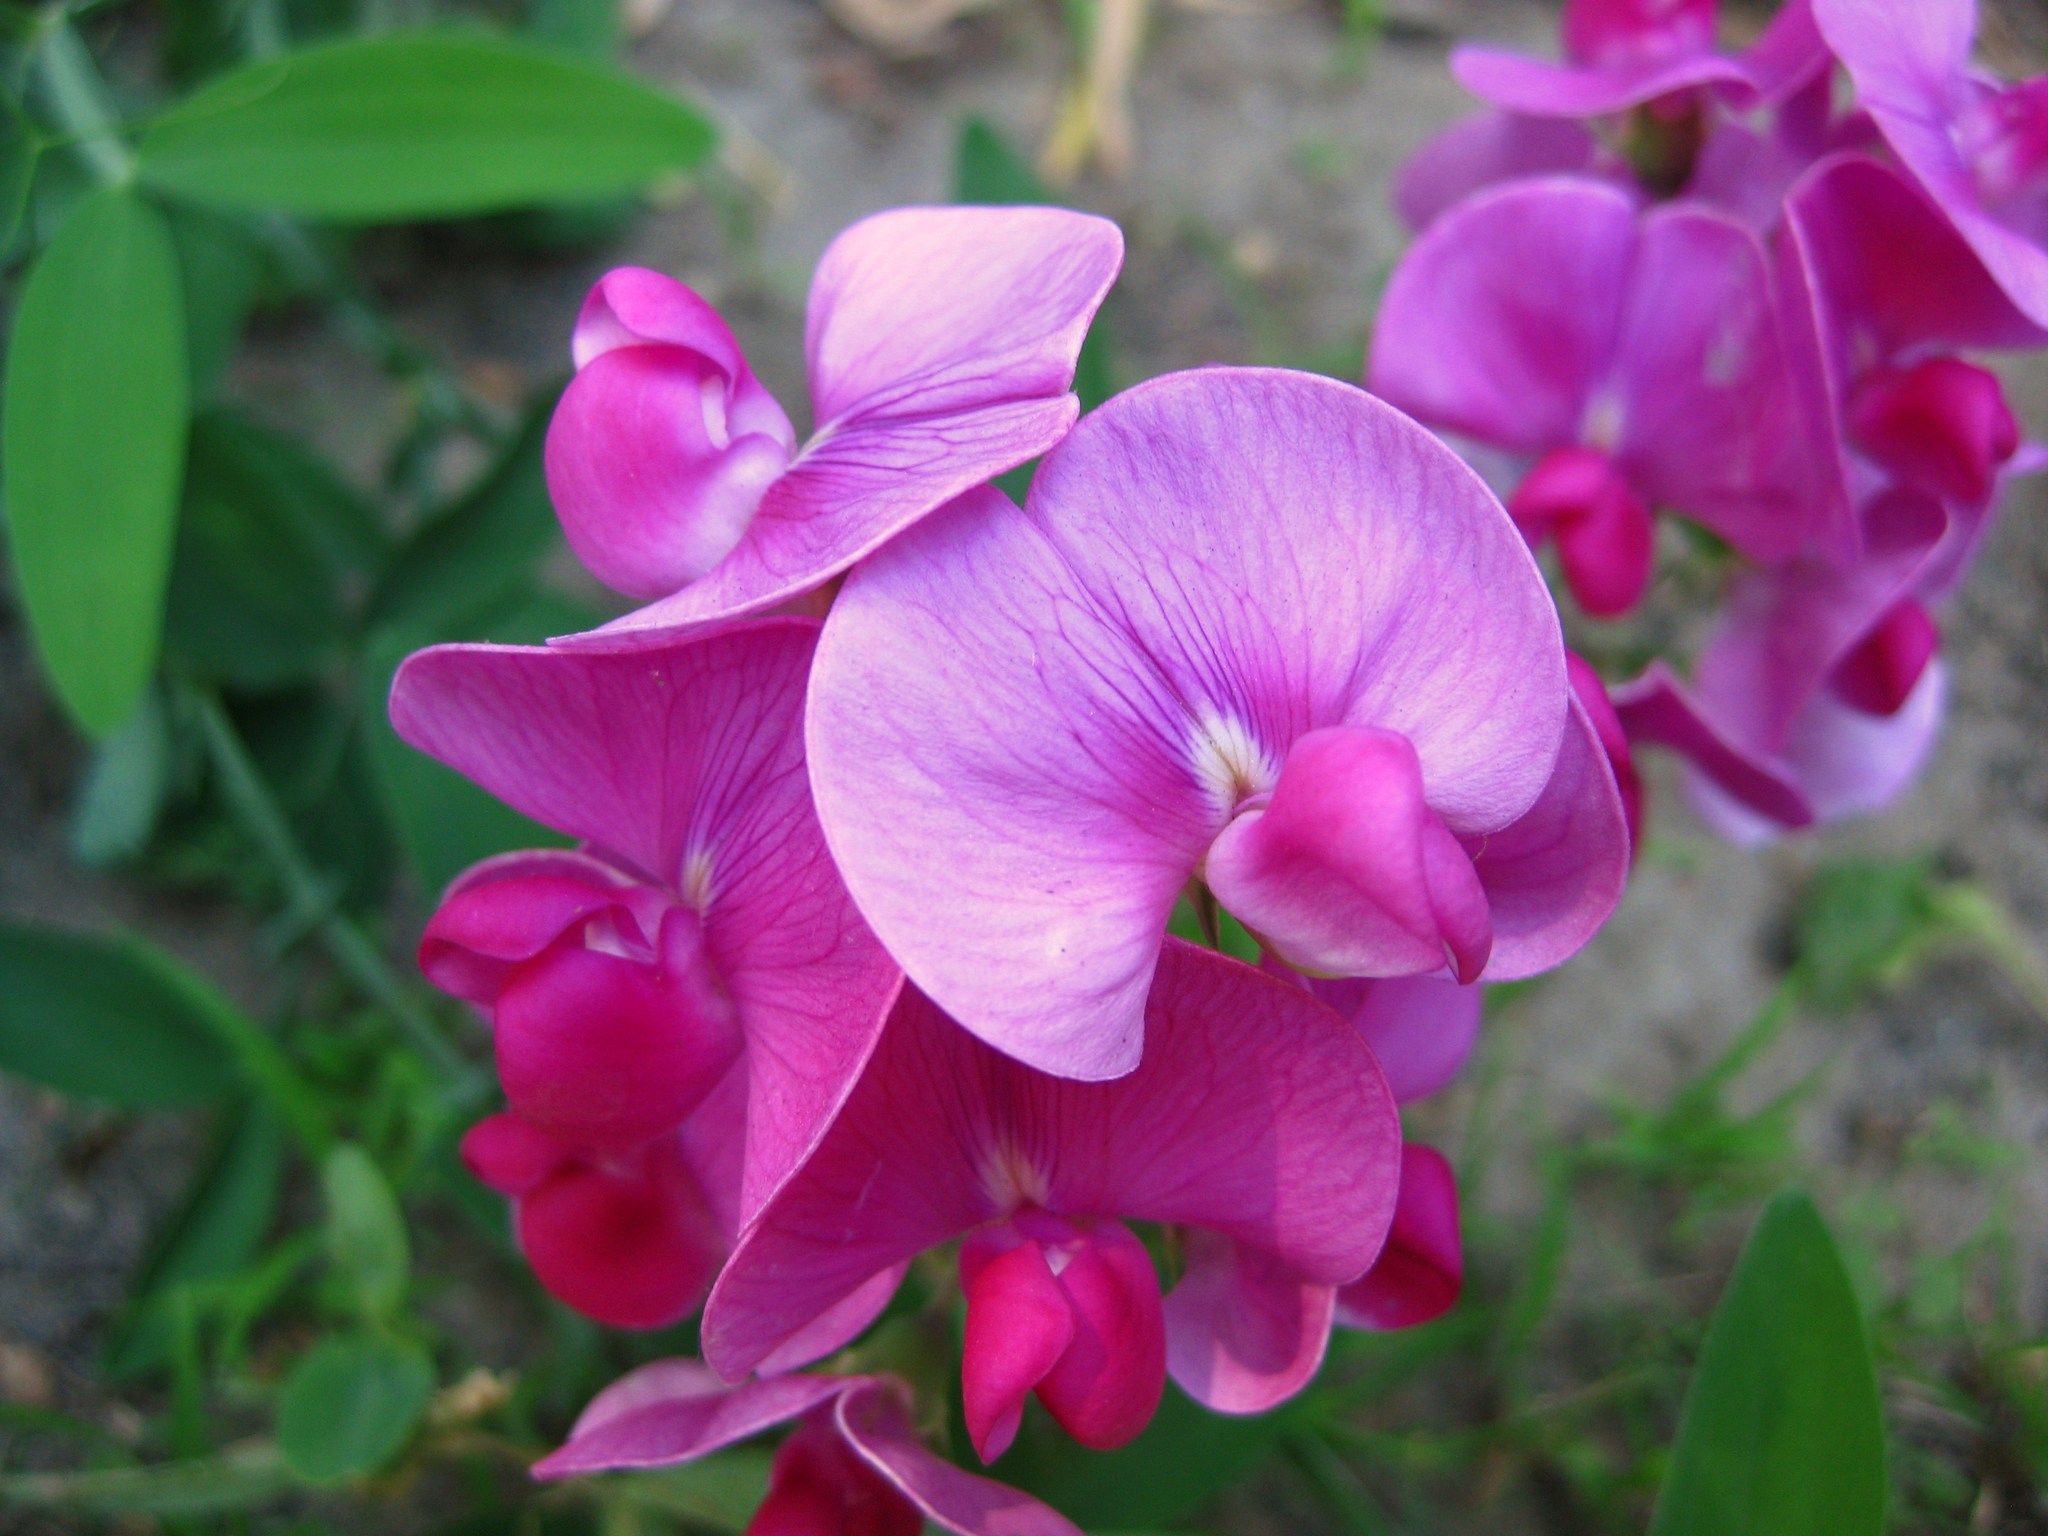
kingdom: Plantae
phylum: Tracheophyta
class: Magnoliopsida
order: Fabales
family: Fabaceae
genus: Lathyrus
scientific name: Lathyrus latifolius
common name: Perennial pea
